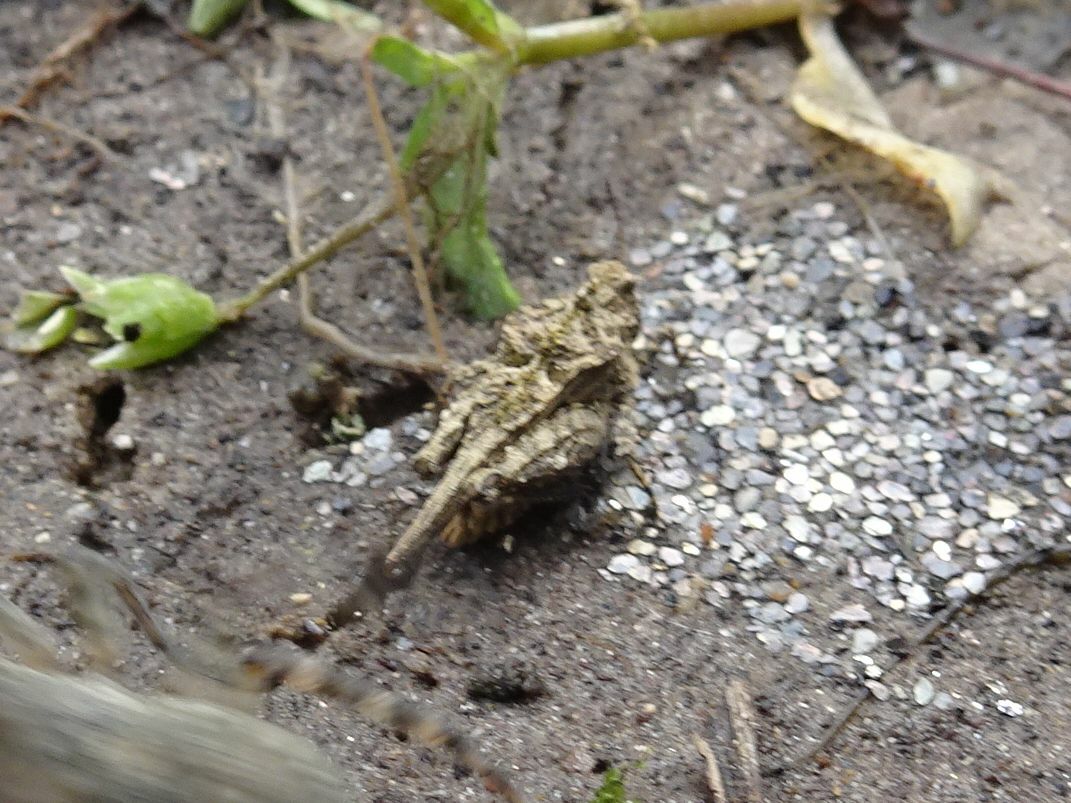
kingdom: Animalia
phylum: Arthropoda
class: Insecta
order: Orthoptera
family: Tetrigidae
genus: Tetrix
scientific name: Tetrix depressa
